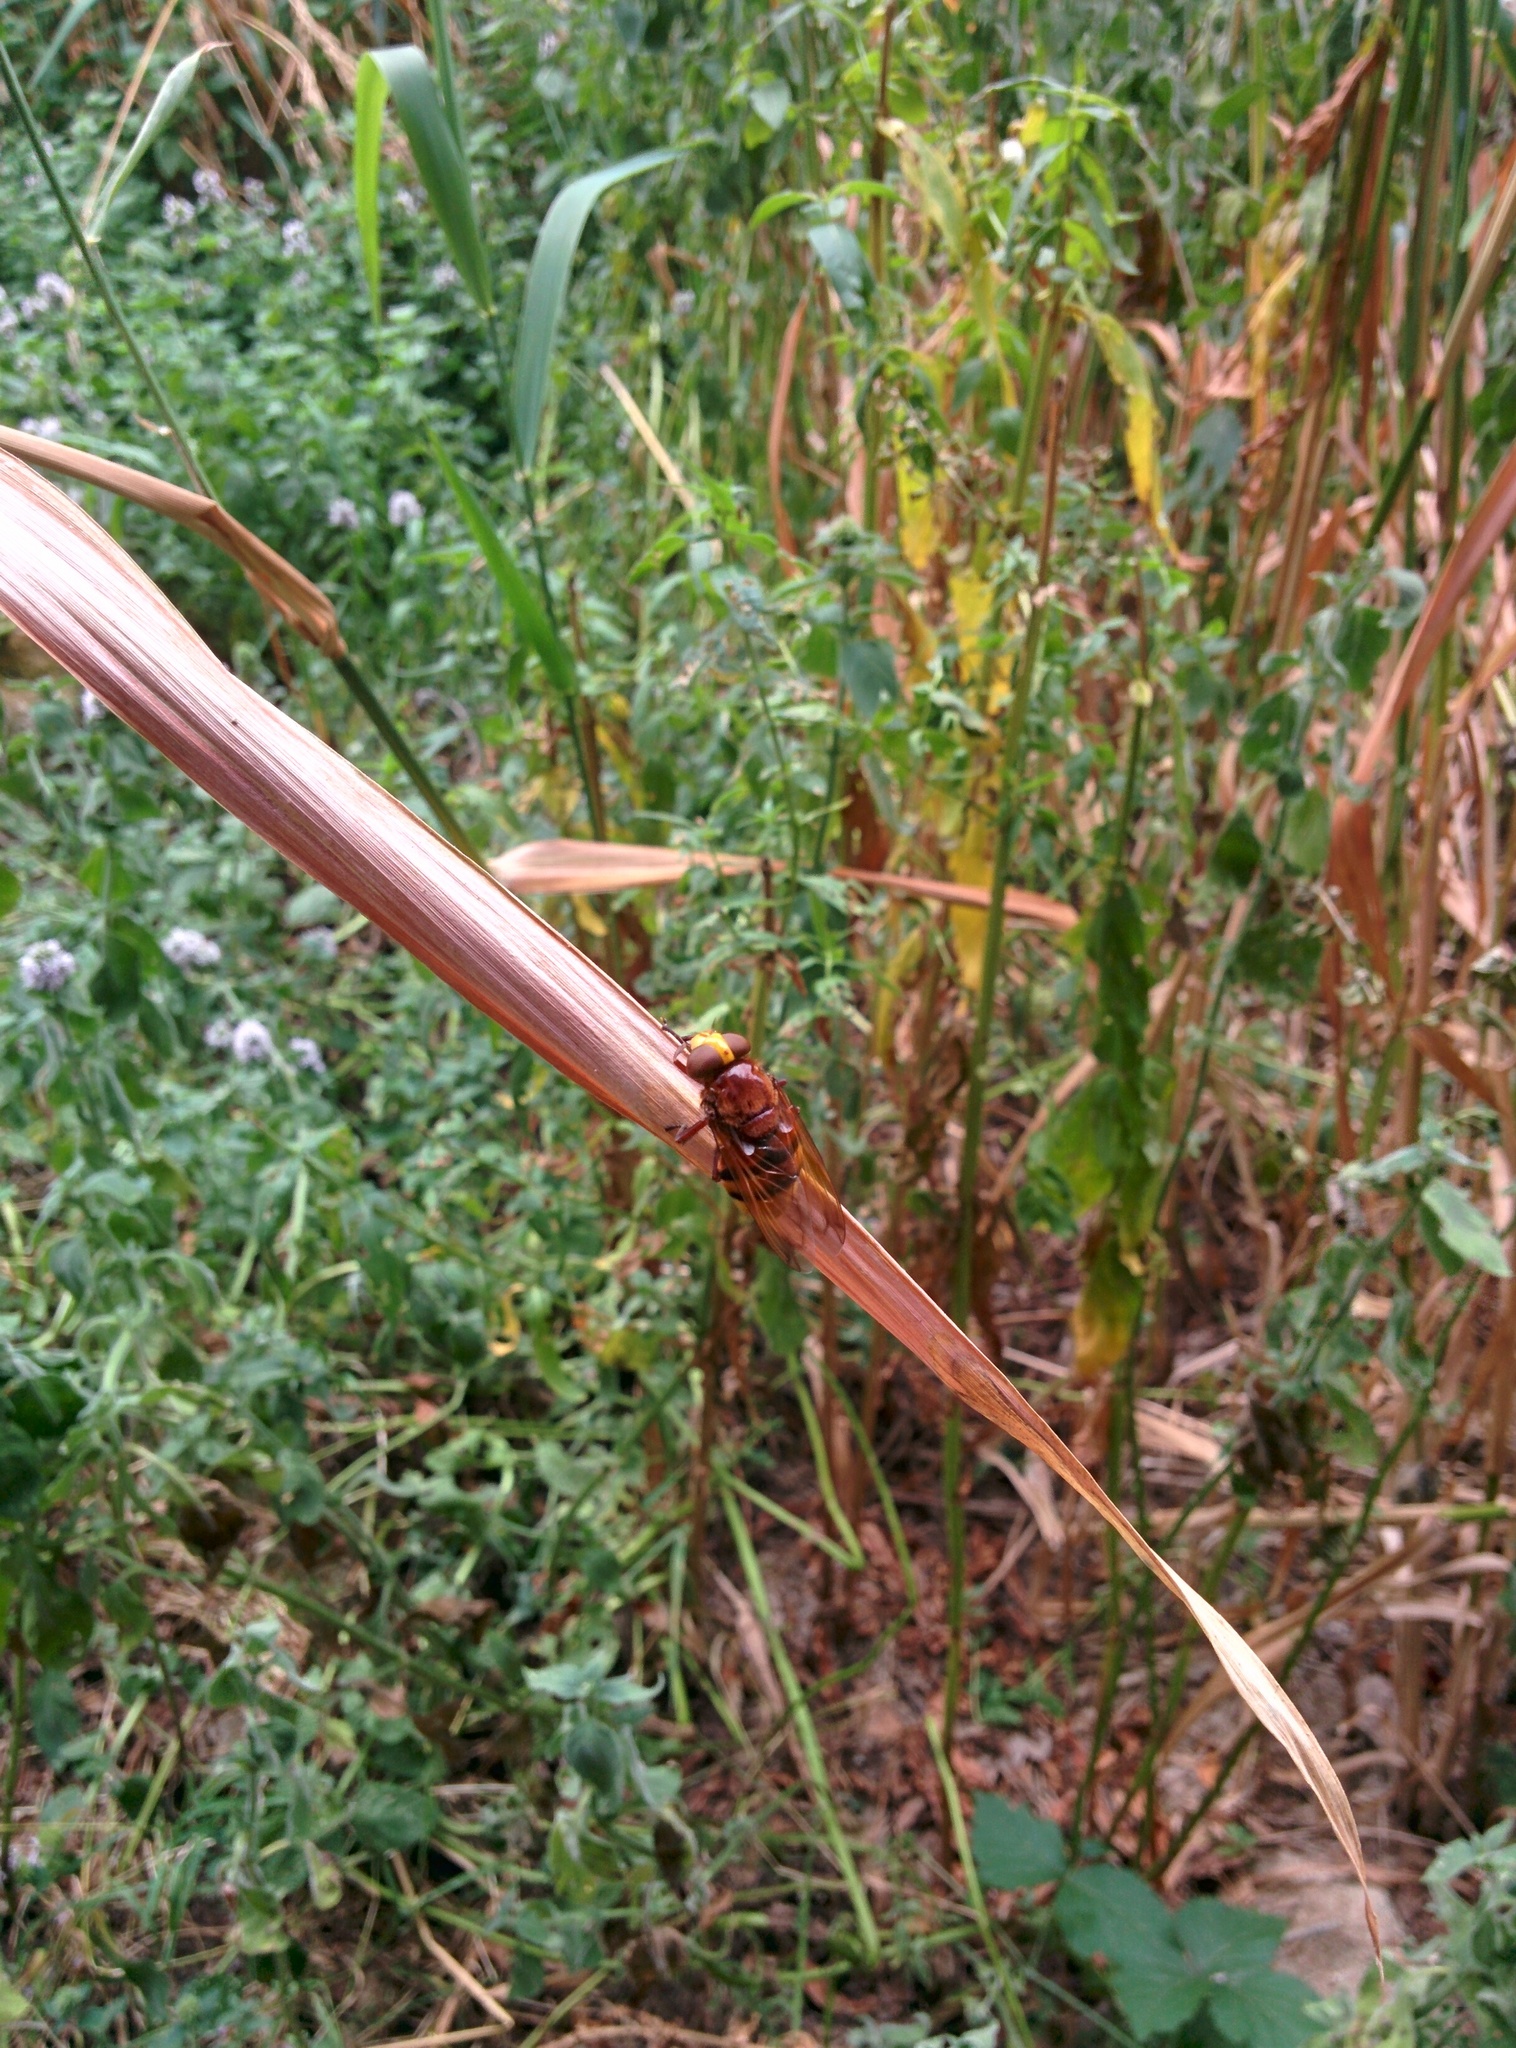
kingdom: Animalia
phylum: Arthropoda
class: Insecta
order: Diptera
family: Syrphidae
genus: Volucella
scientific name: Volucella zonaria
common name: Hornet hoverfly
